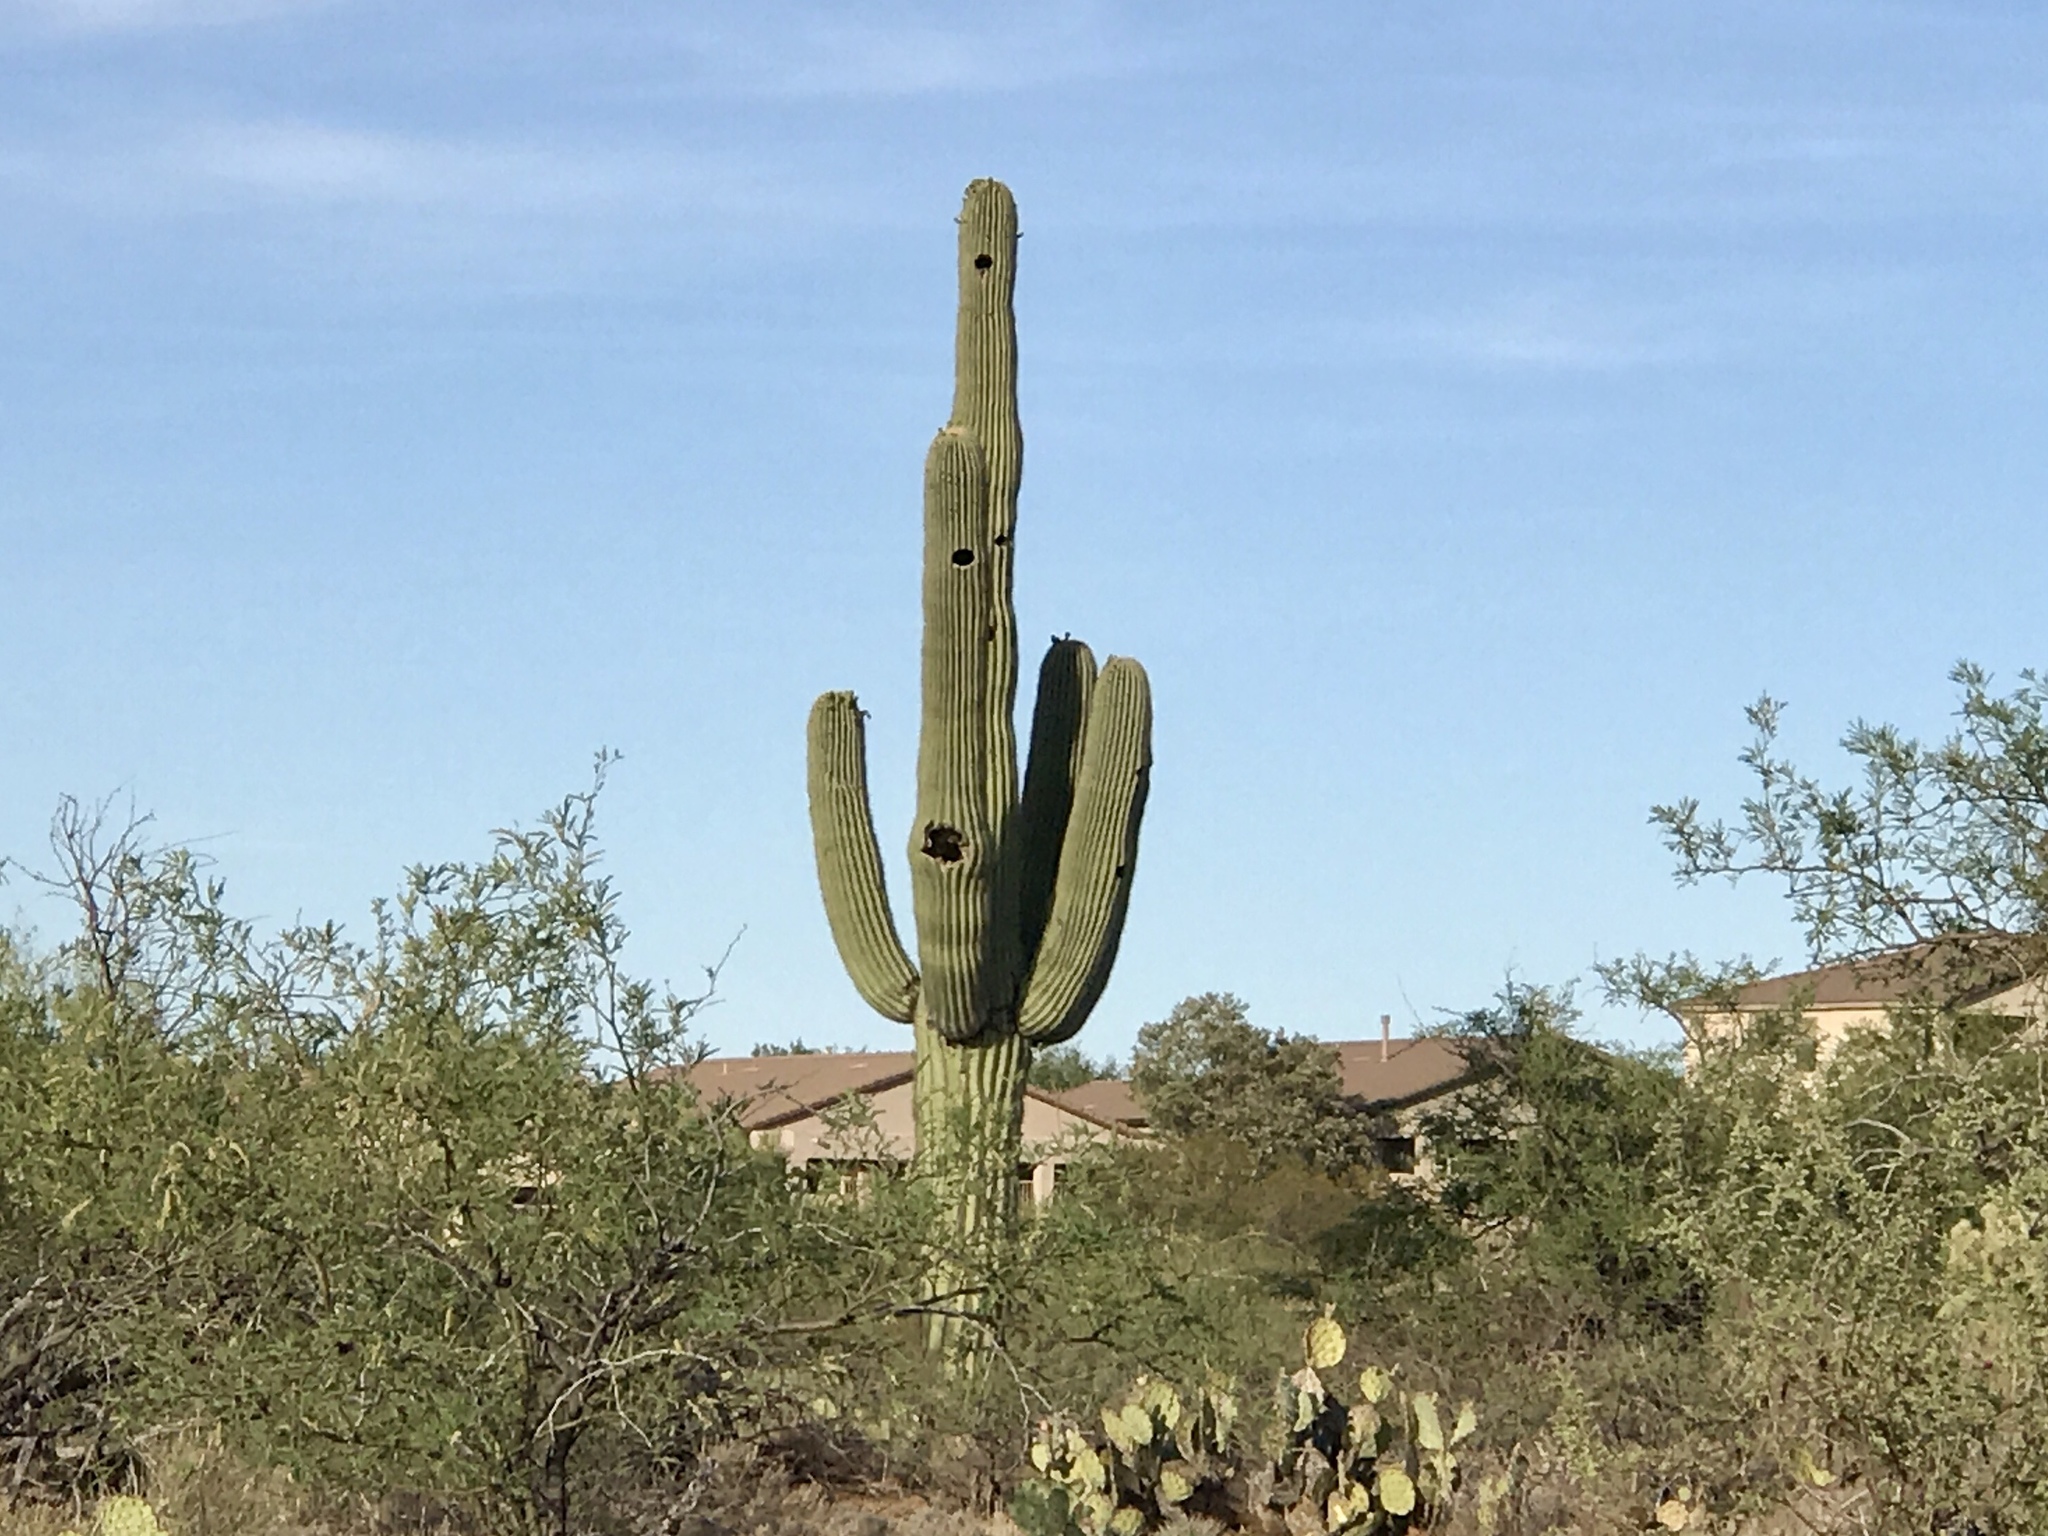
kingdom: Plantae
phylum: Tracheophyta
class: Magnoliopsida
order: Caryophyllales
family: Cactaceae
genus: Carnegiea
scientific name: Carnegiea gigantea
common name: Saguaro
